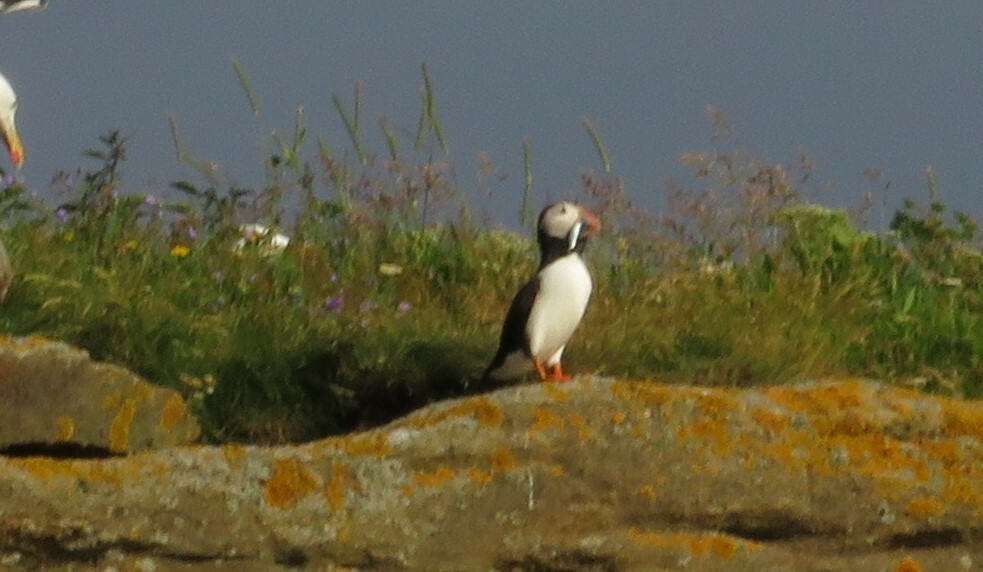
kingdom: Animalia
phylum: Chordata
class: Aves
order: Charadriiformes
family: Alcidae
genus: Fratercula
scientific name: Fratercula arctica
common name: Atlantic puffin
